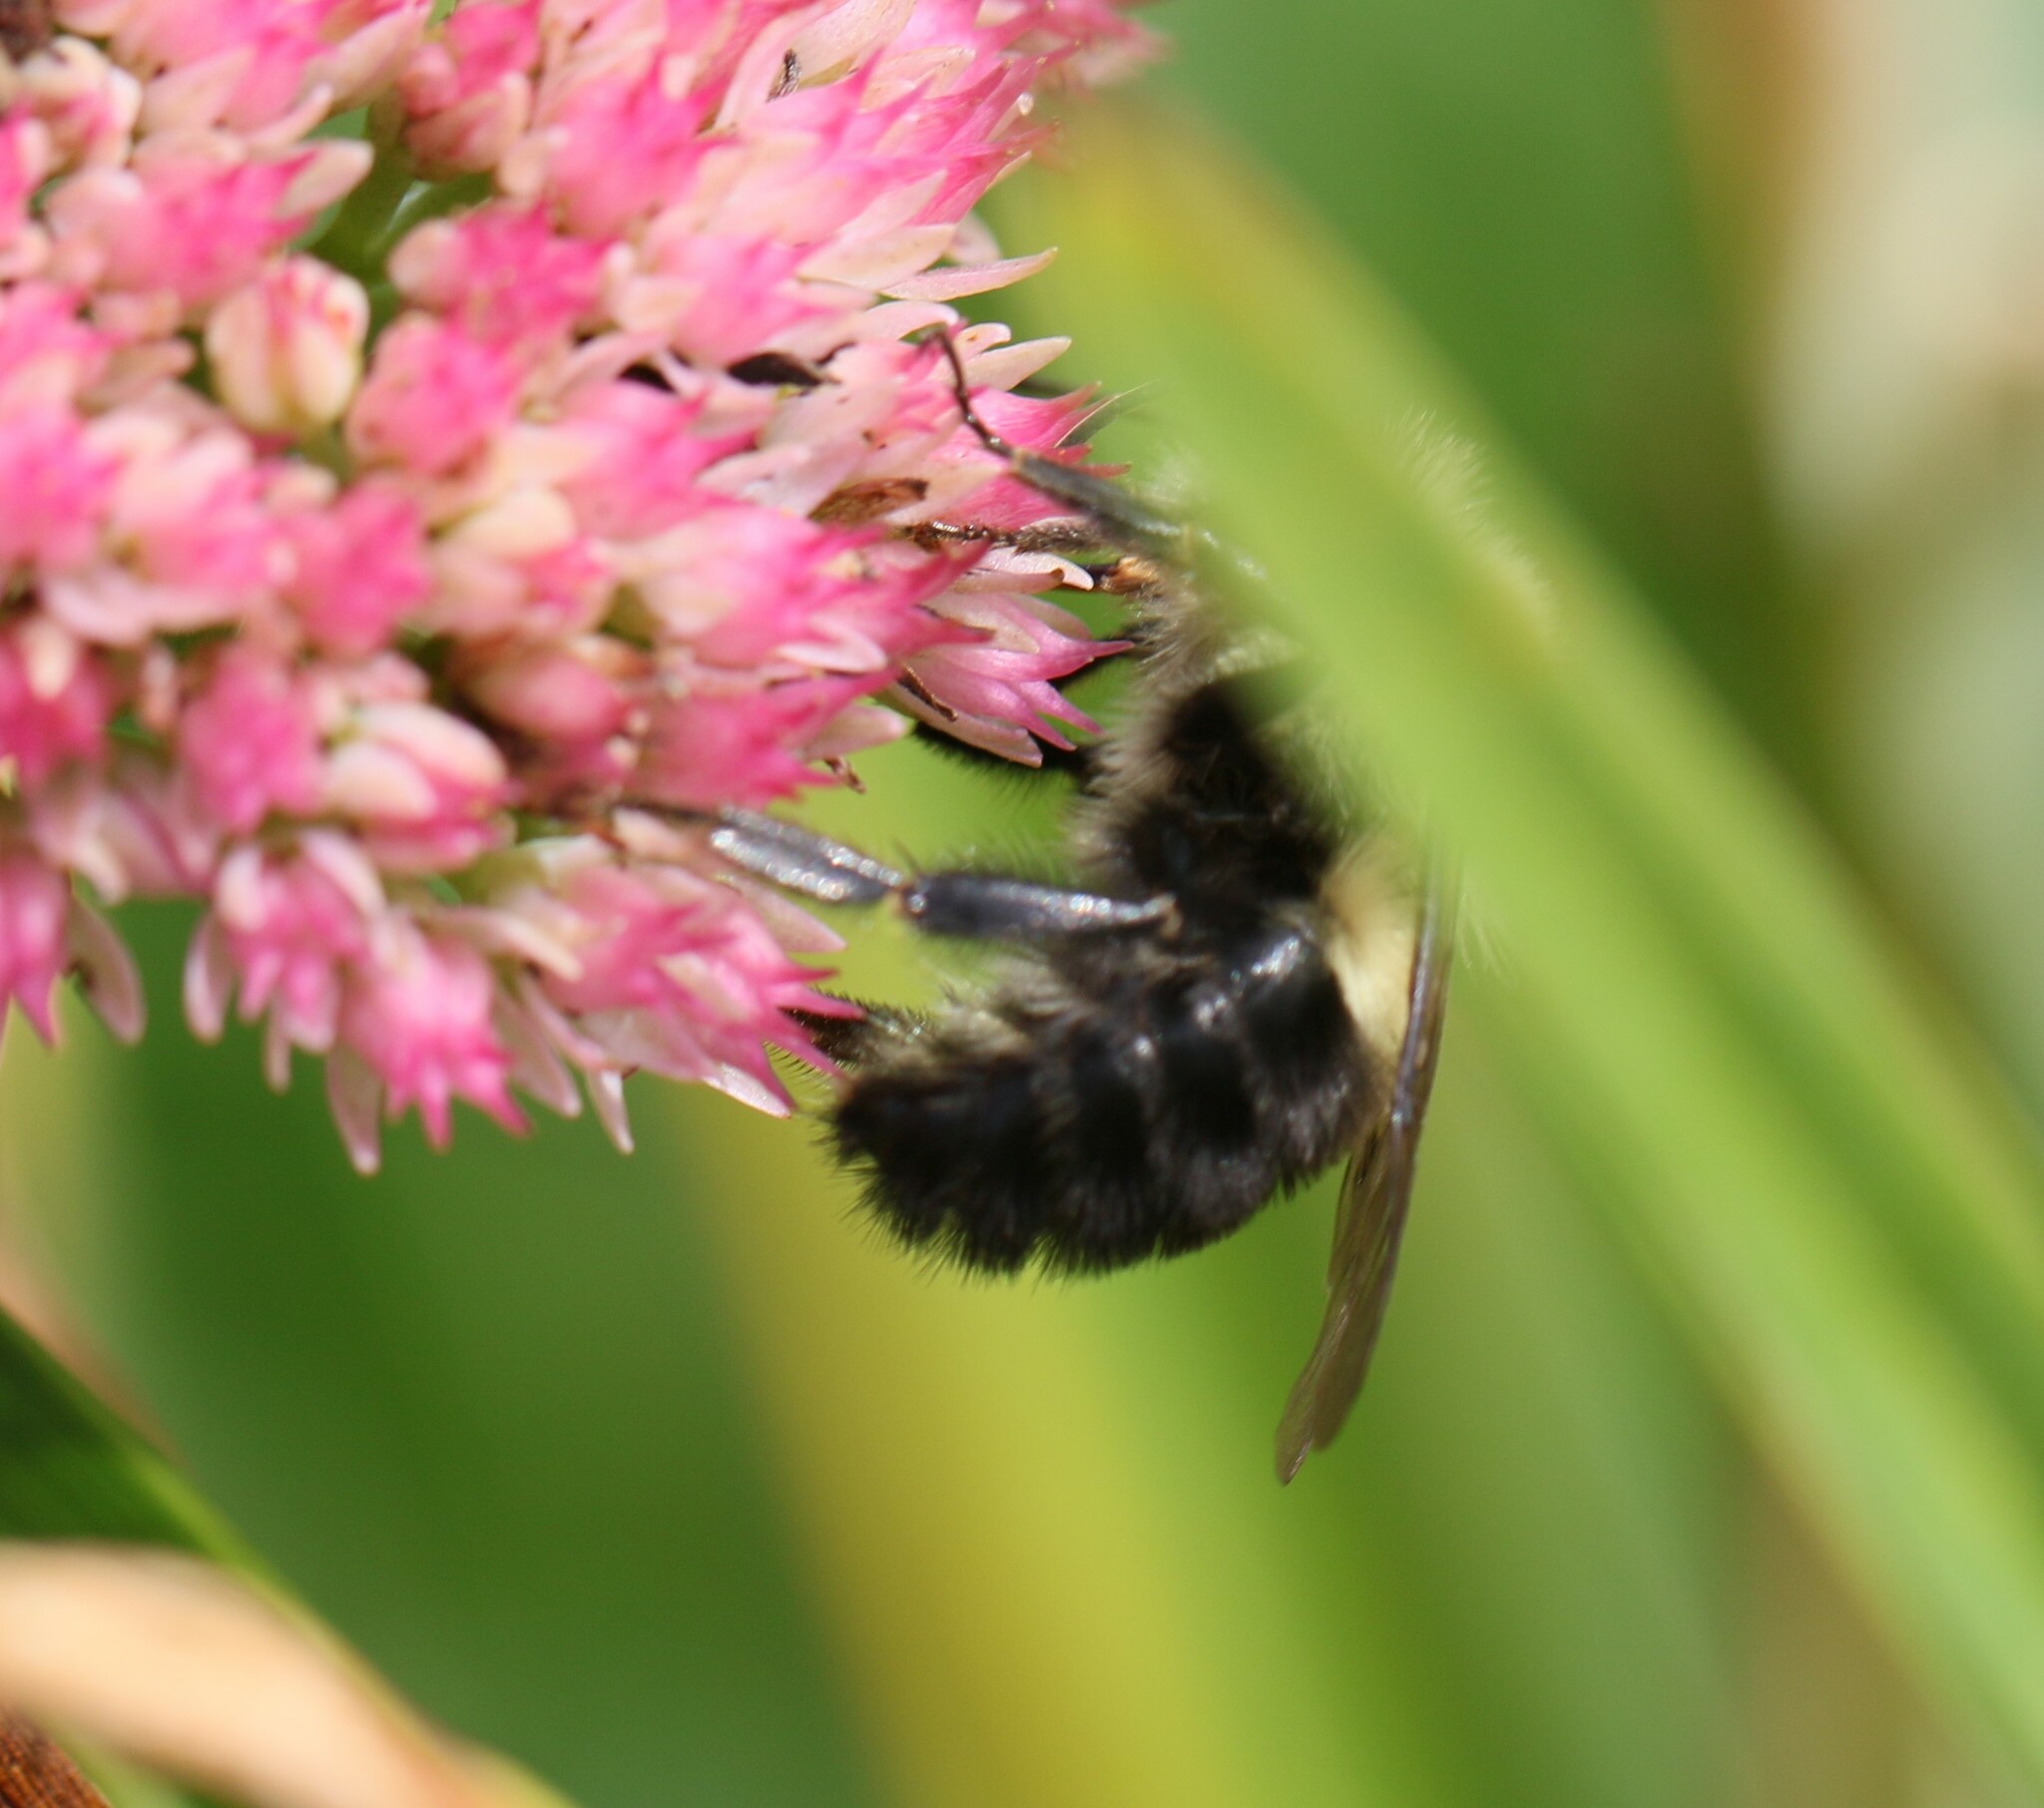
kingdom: Animalia
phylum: Arthropoda
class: Insecta
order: Hymenoptera
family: Apidae
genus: Bombus
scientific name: Bombus impatiens
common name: Common eastern bumble bee
